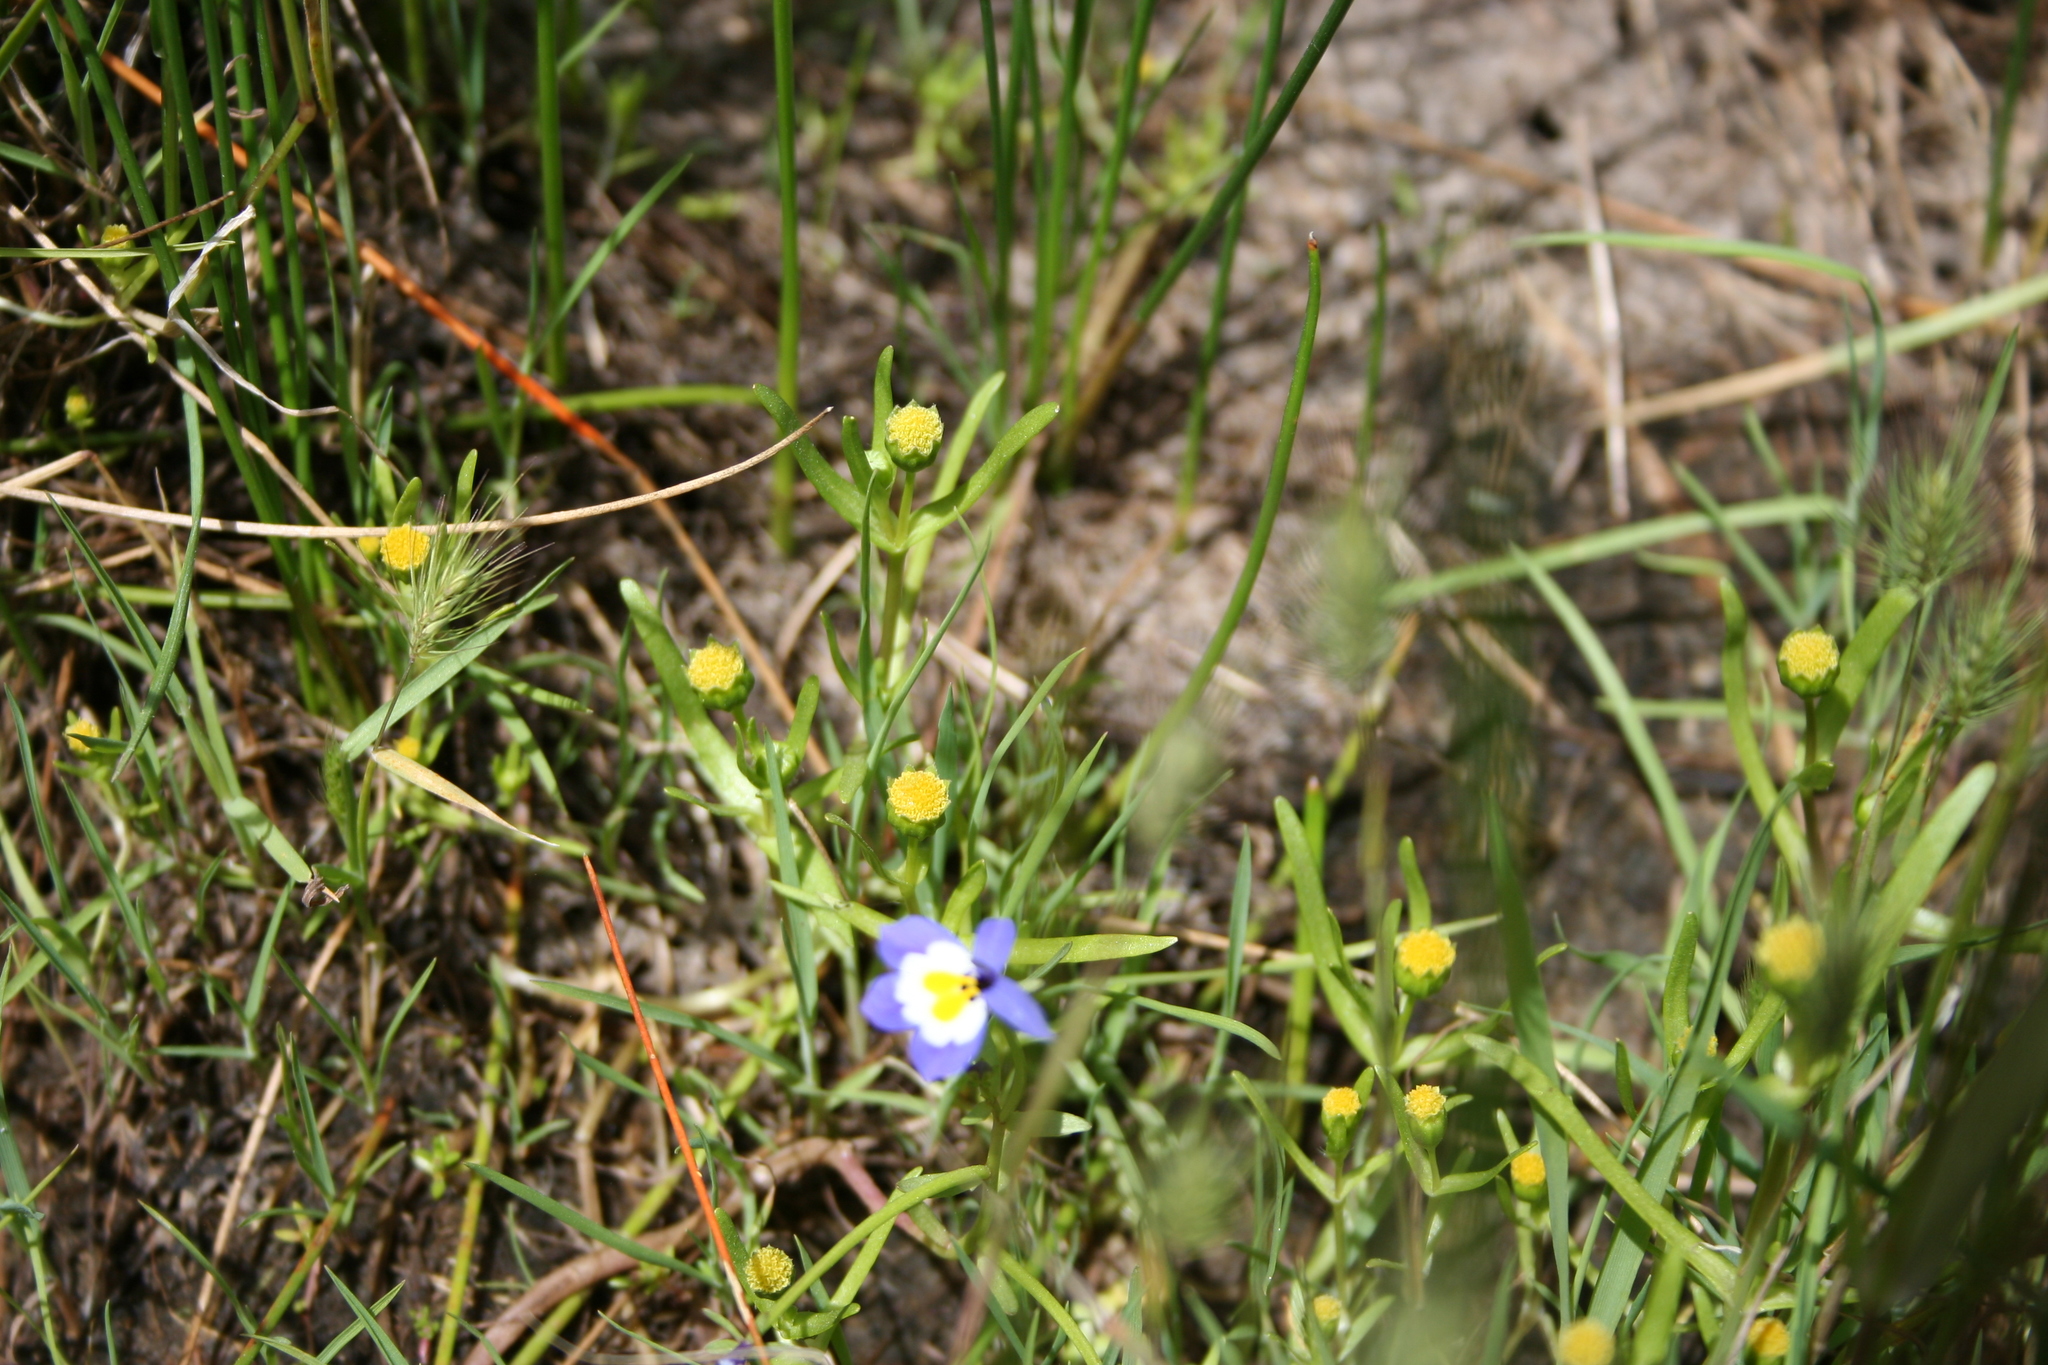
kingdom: Plantae
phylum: Tracheophyta
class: Magnoliopsida
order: Asterales
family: Asteraceae
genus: Lasthenia
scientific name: Lasthenia glaberrima
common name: Smooth goldfields
